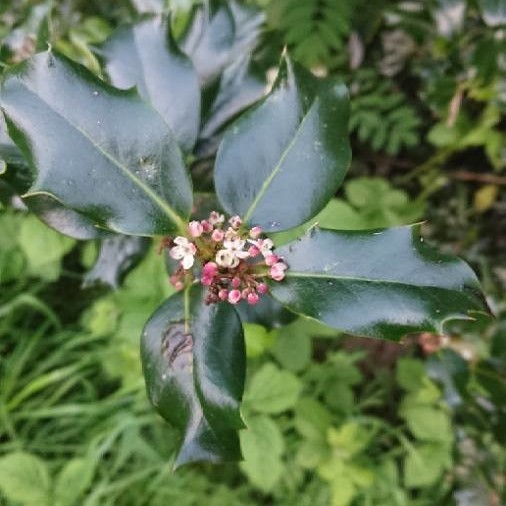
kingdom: Plantae
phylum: Tracheophyta
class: Magnoliopsida
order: Aquifoliales
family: Aquifoliaceae
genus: Ilex
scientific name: Ilex aquifolium
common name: English holly
